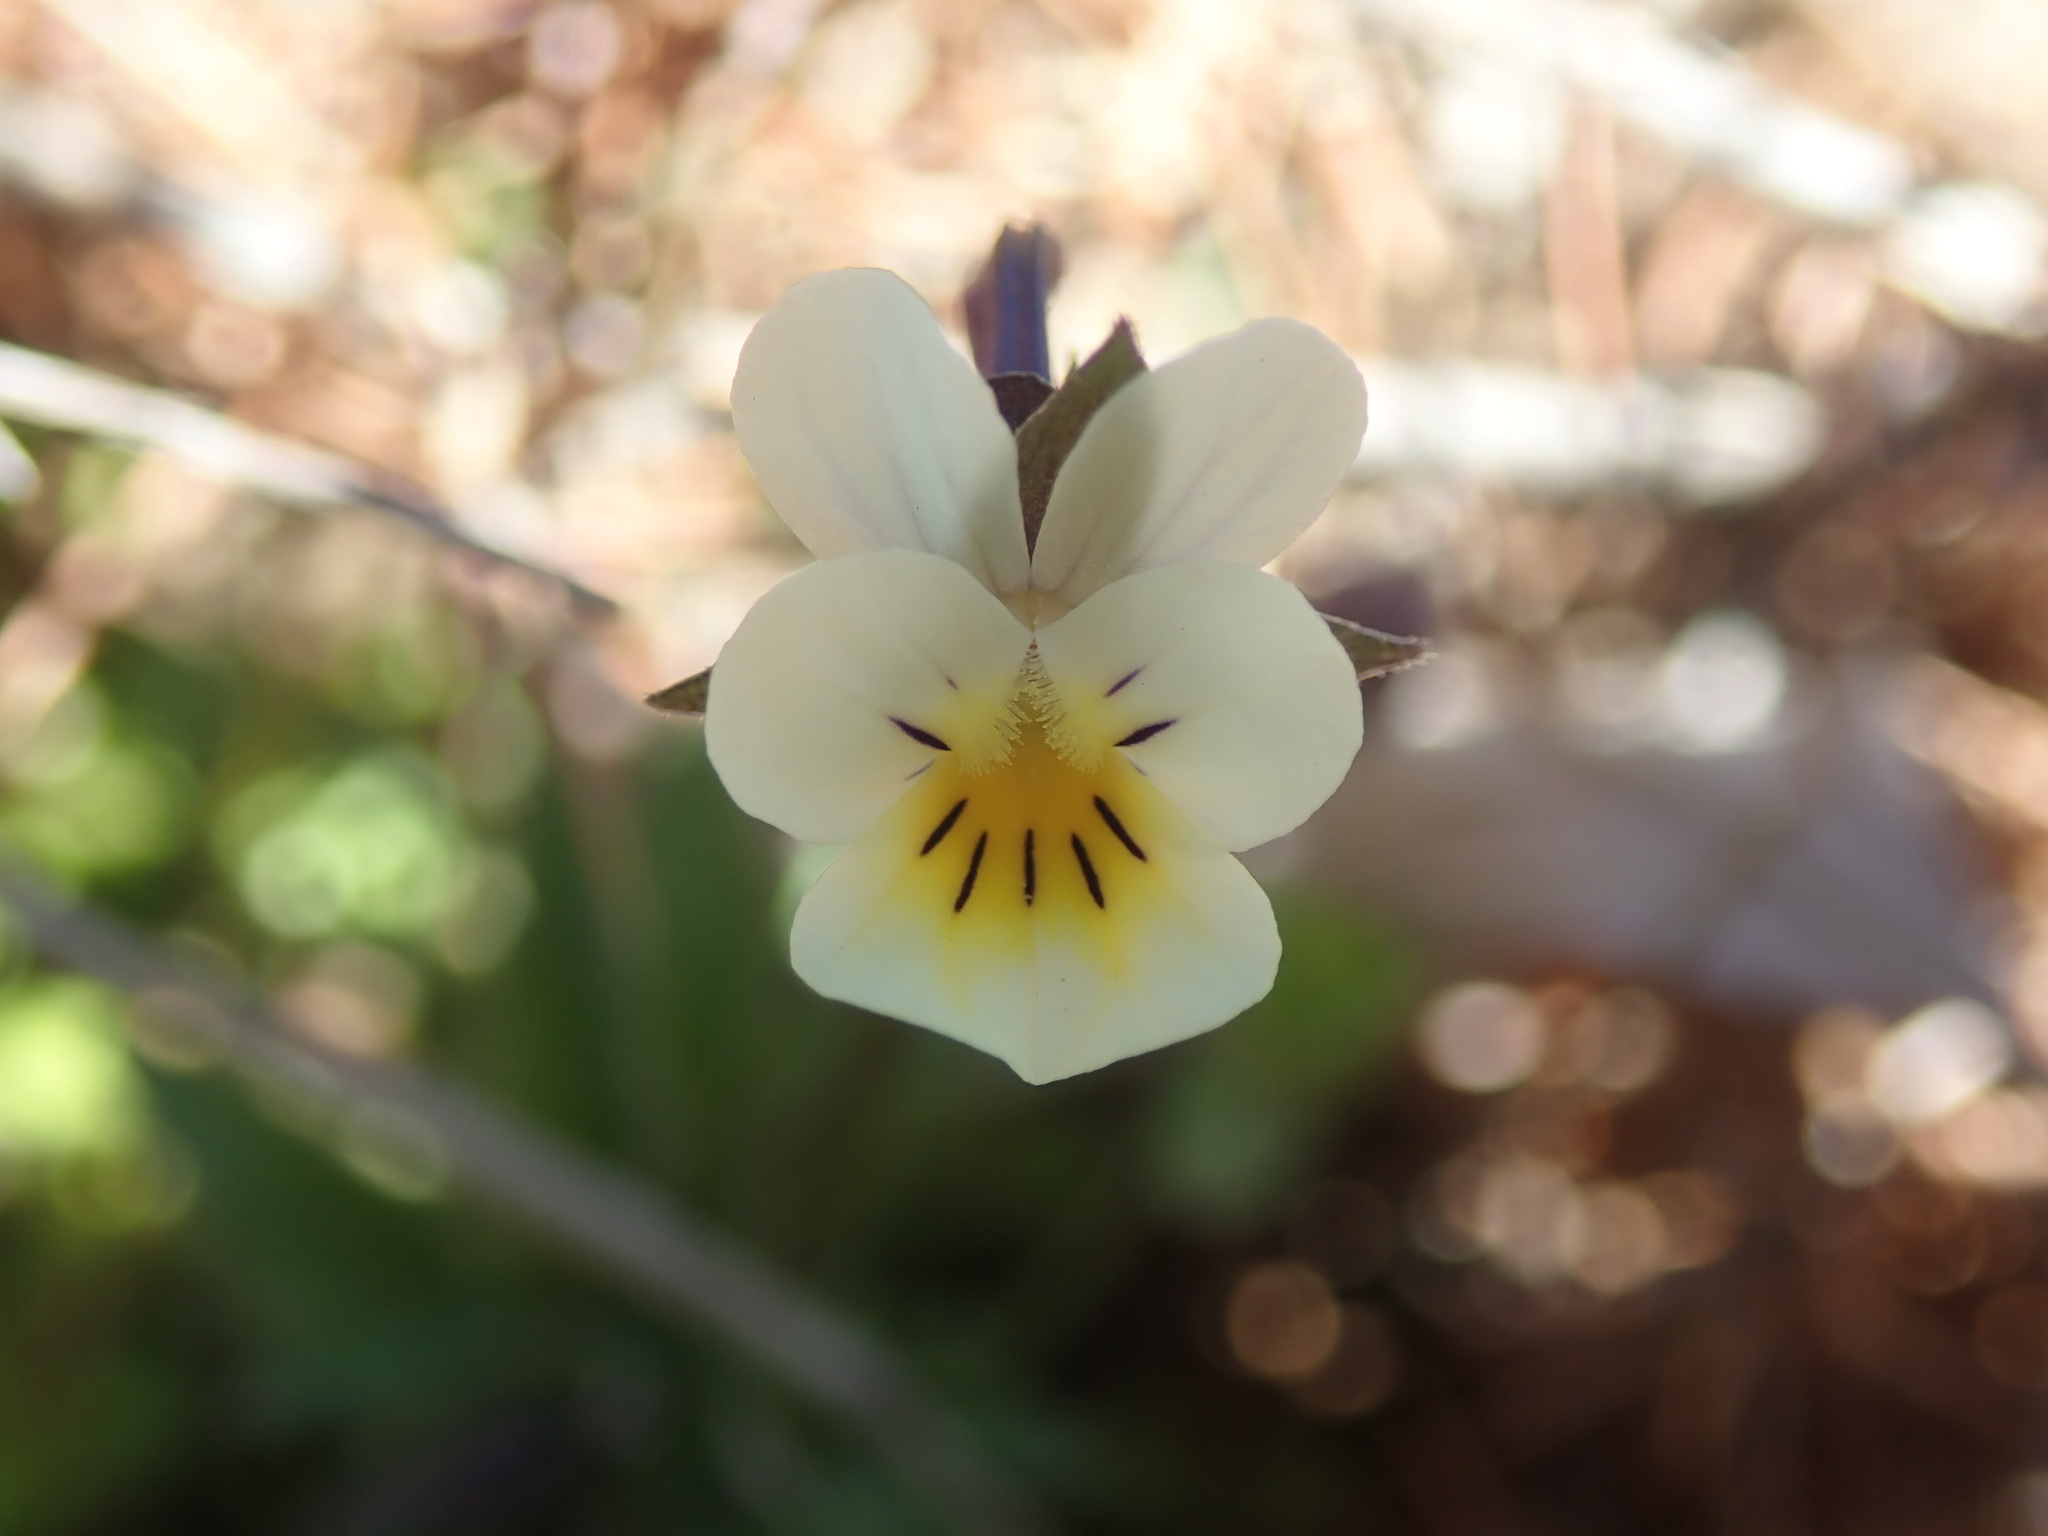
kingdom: Plantae
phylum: Tracheophyta
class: Magnoliopsida
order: Malpighiales
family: Violaceae
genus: Viola
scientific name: Viola arvensis
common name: Field pansy
